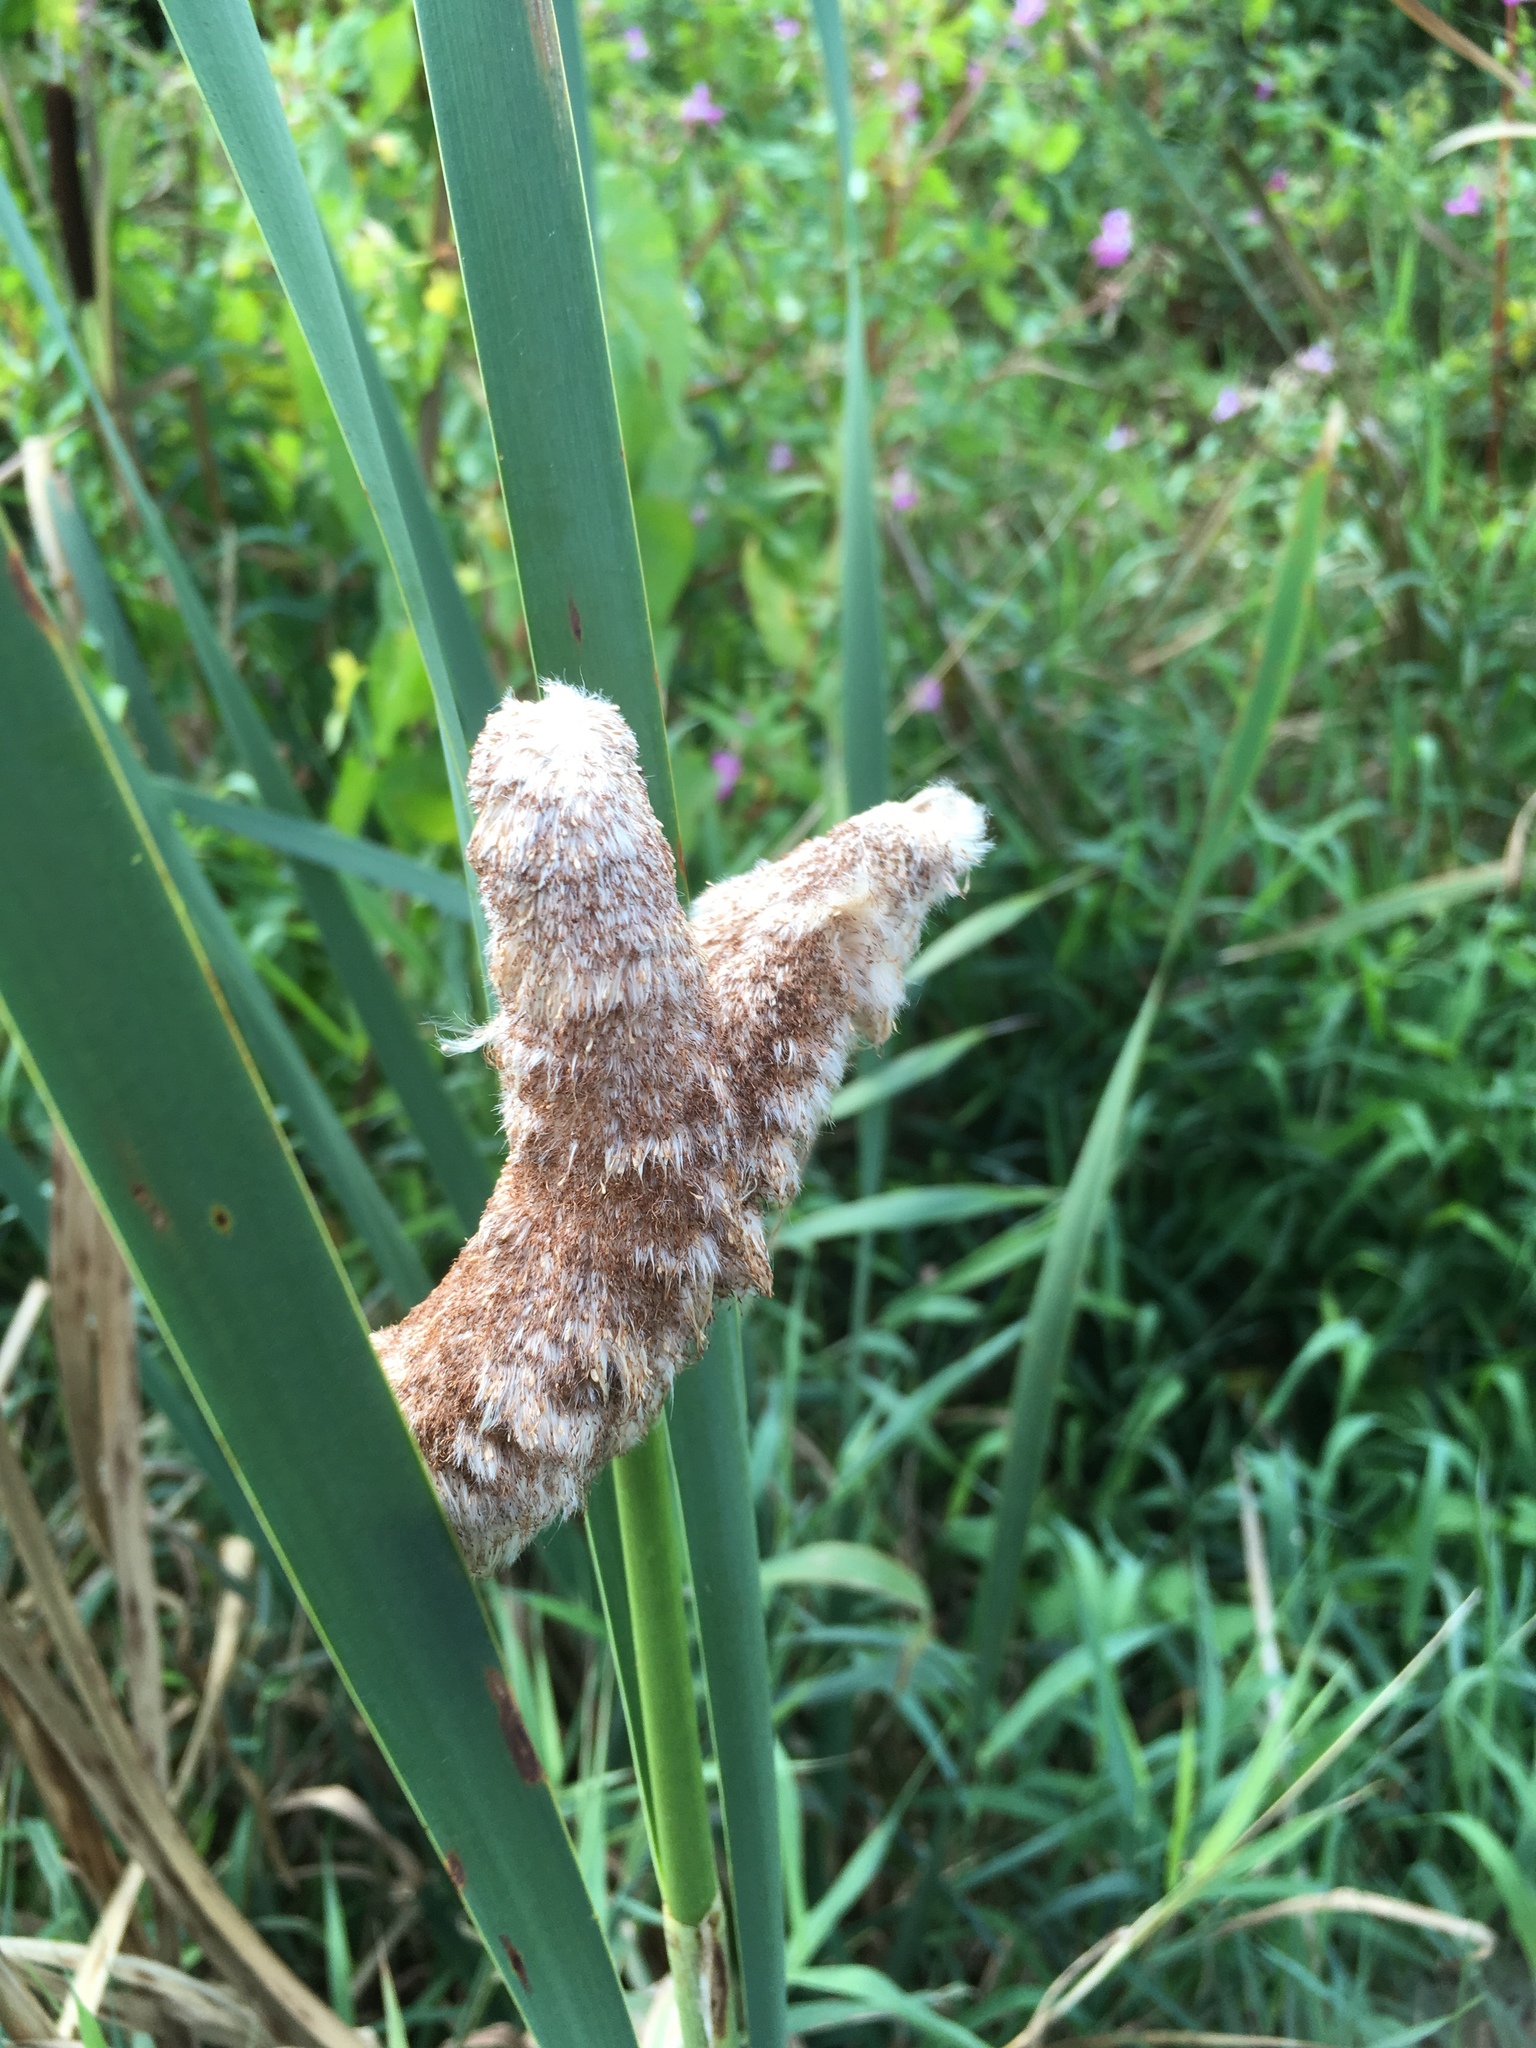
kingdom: Plantae
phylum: Tracheophyta
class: Liliopsida
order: Poales
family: Typhaceae
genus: Typha
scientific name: Typha latifolia
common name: Broadleaf cattail
